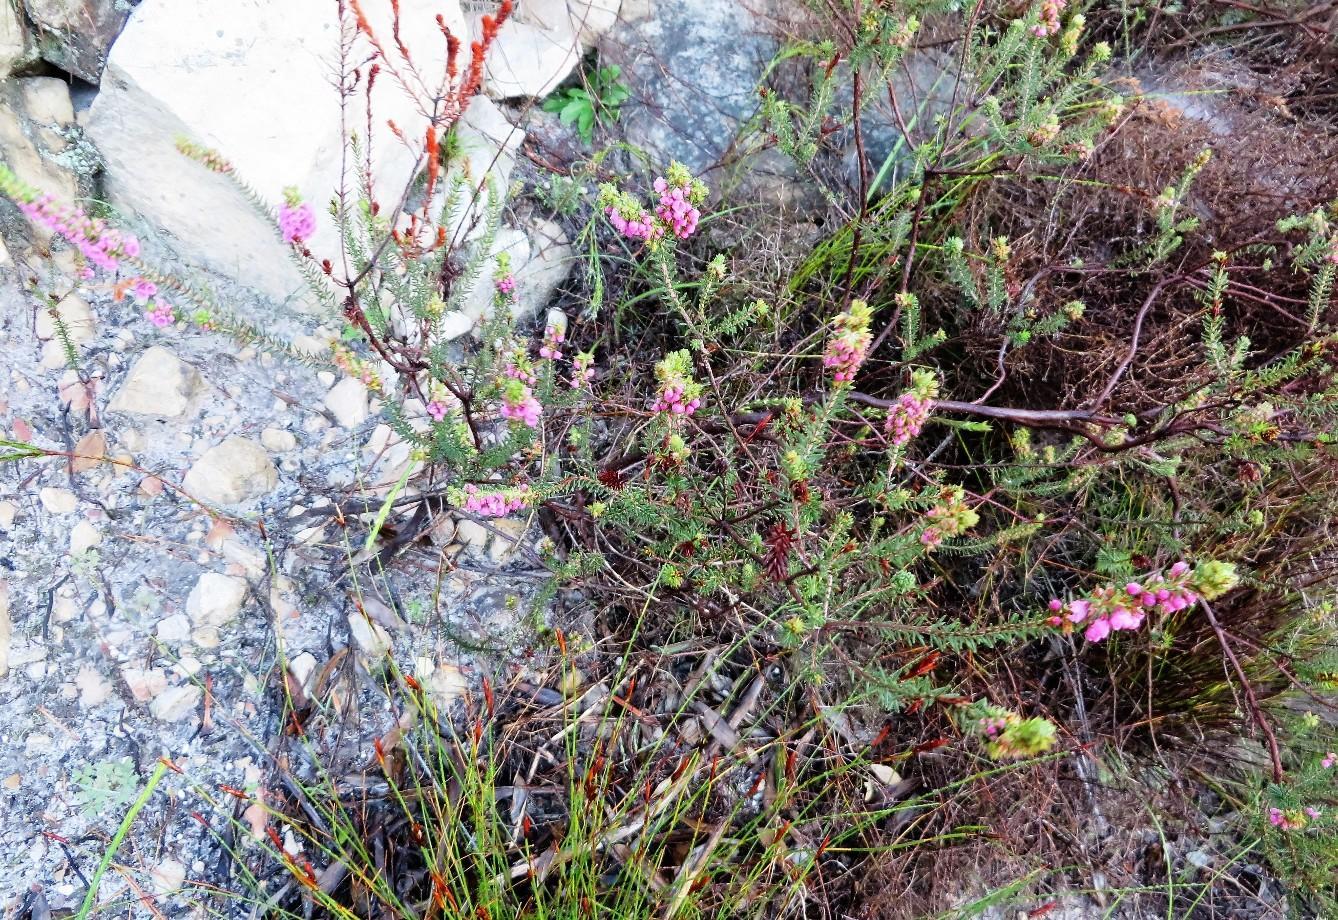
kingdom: Plantae
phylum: Tracheophyta
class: Magnoliopsida
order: Ericales
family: Ericaceae
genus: Erica
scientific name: Erica abietina
